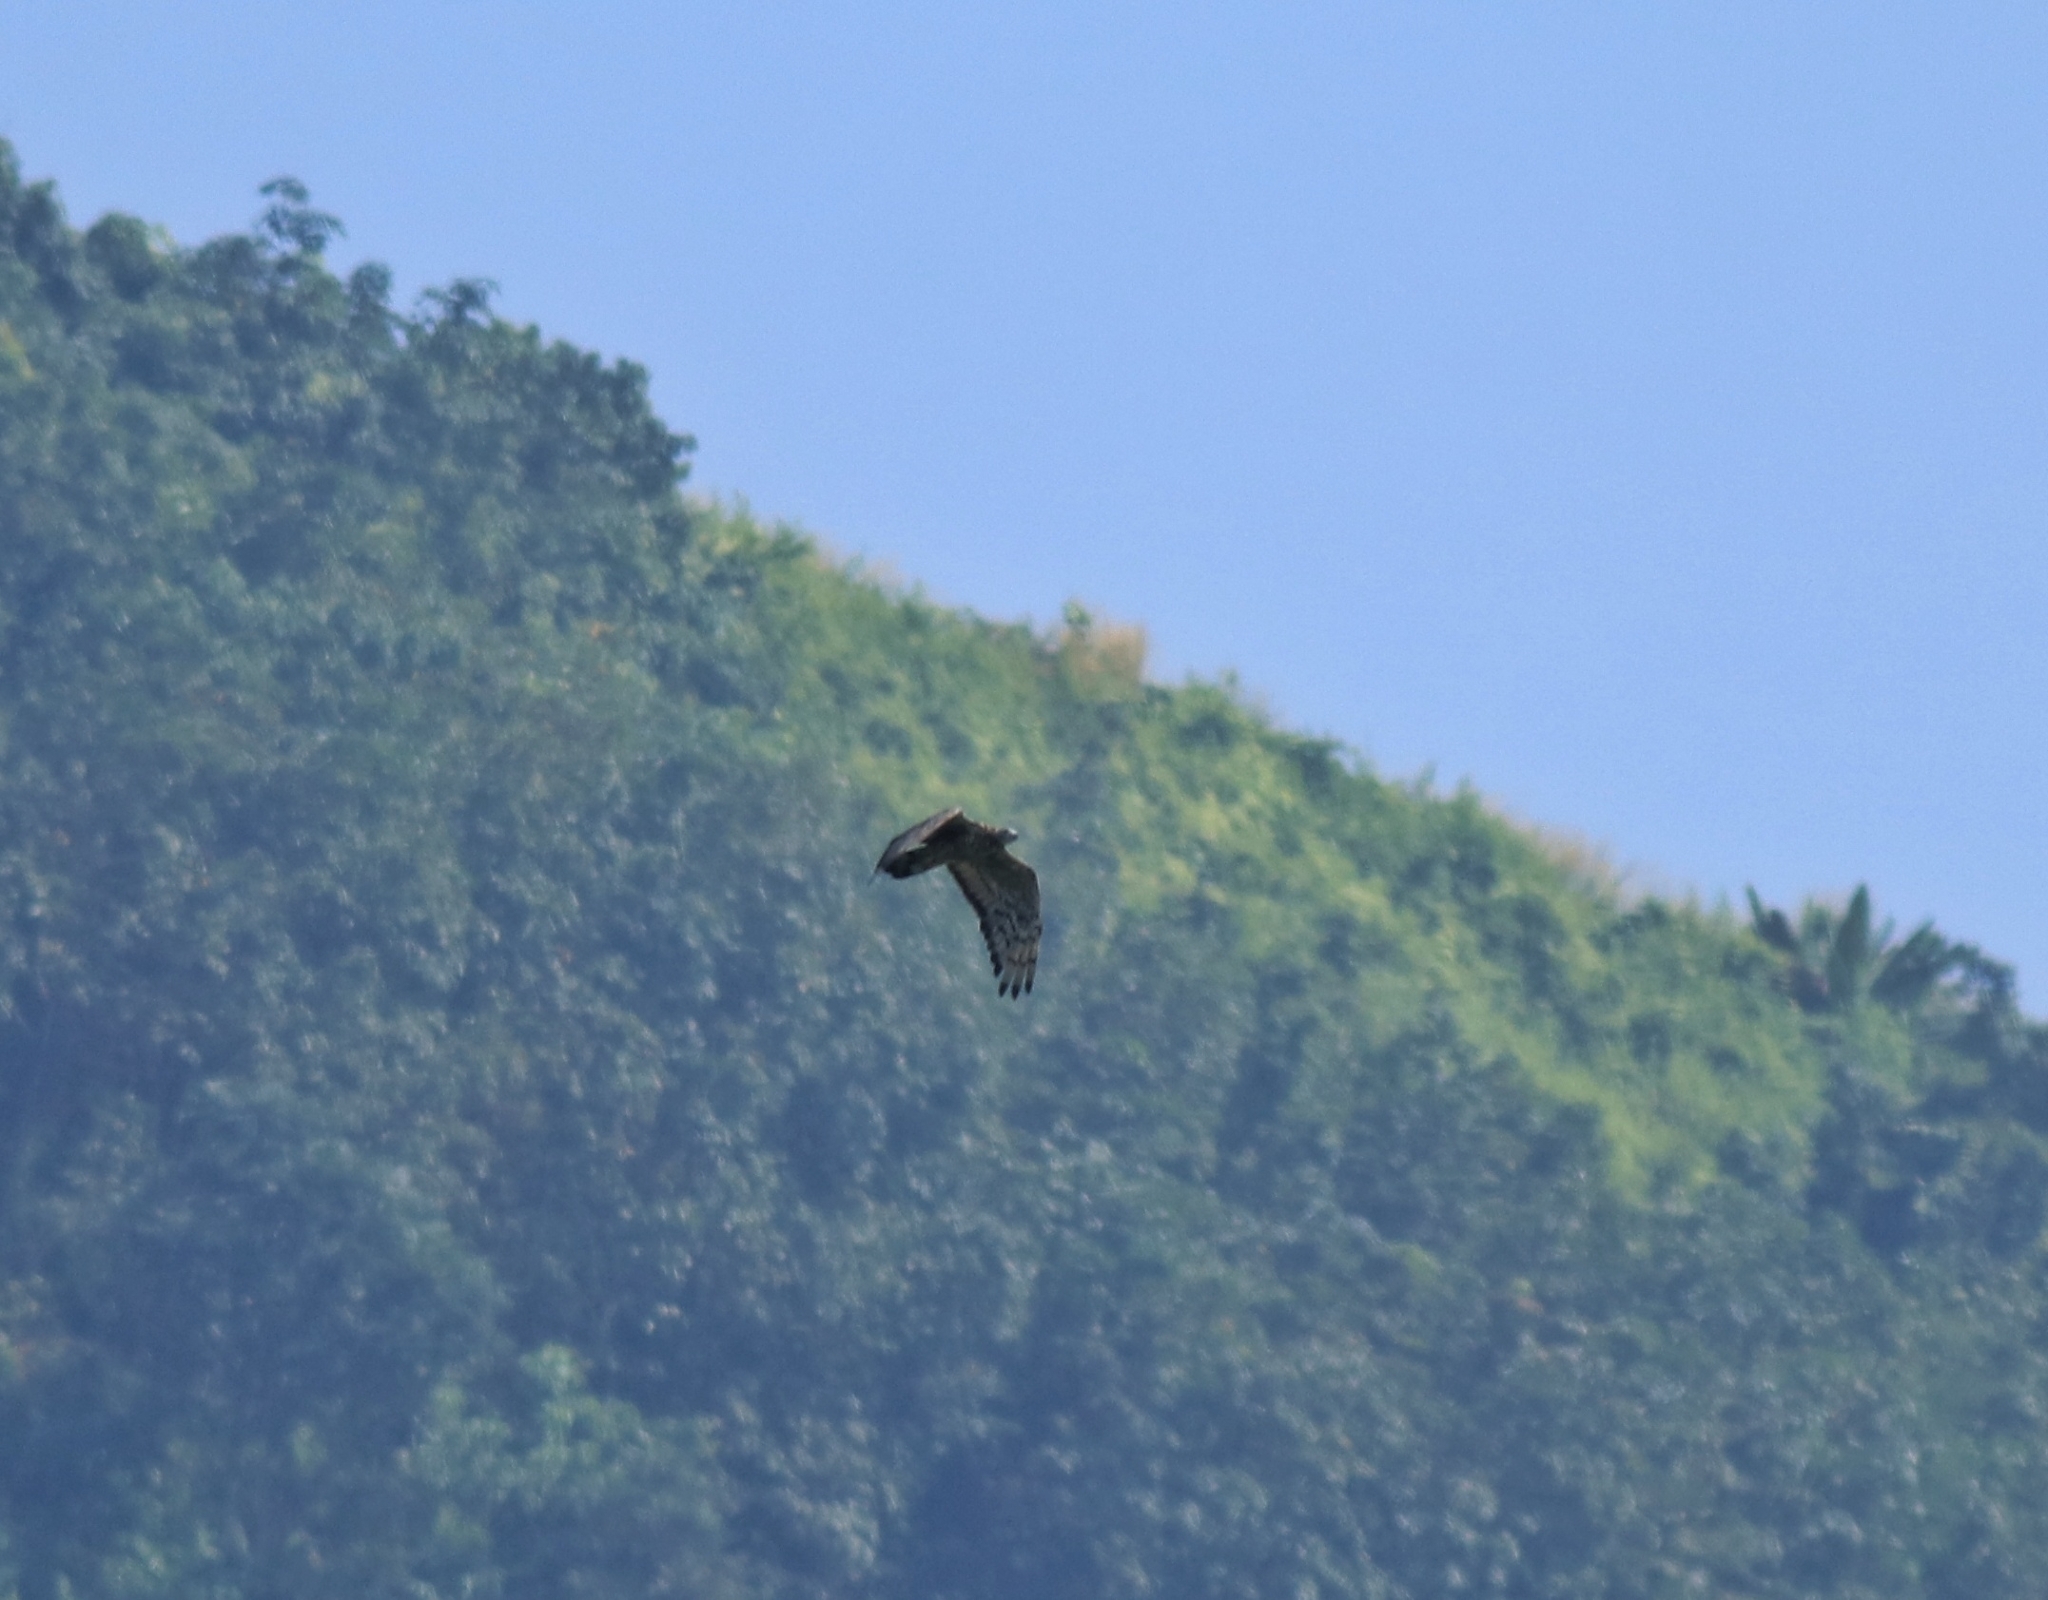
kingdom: Animalia
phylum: Chordata
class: Aves
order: Accipitriformes
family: Accipitridae
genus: Pernis
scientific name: Pernis ptilorhynchus
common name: Crested honey buzzard
